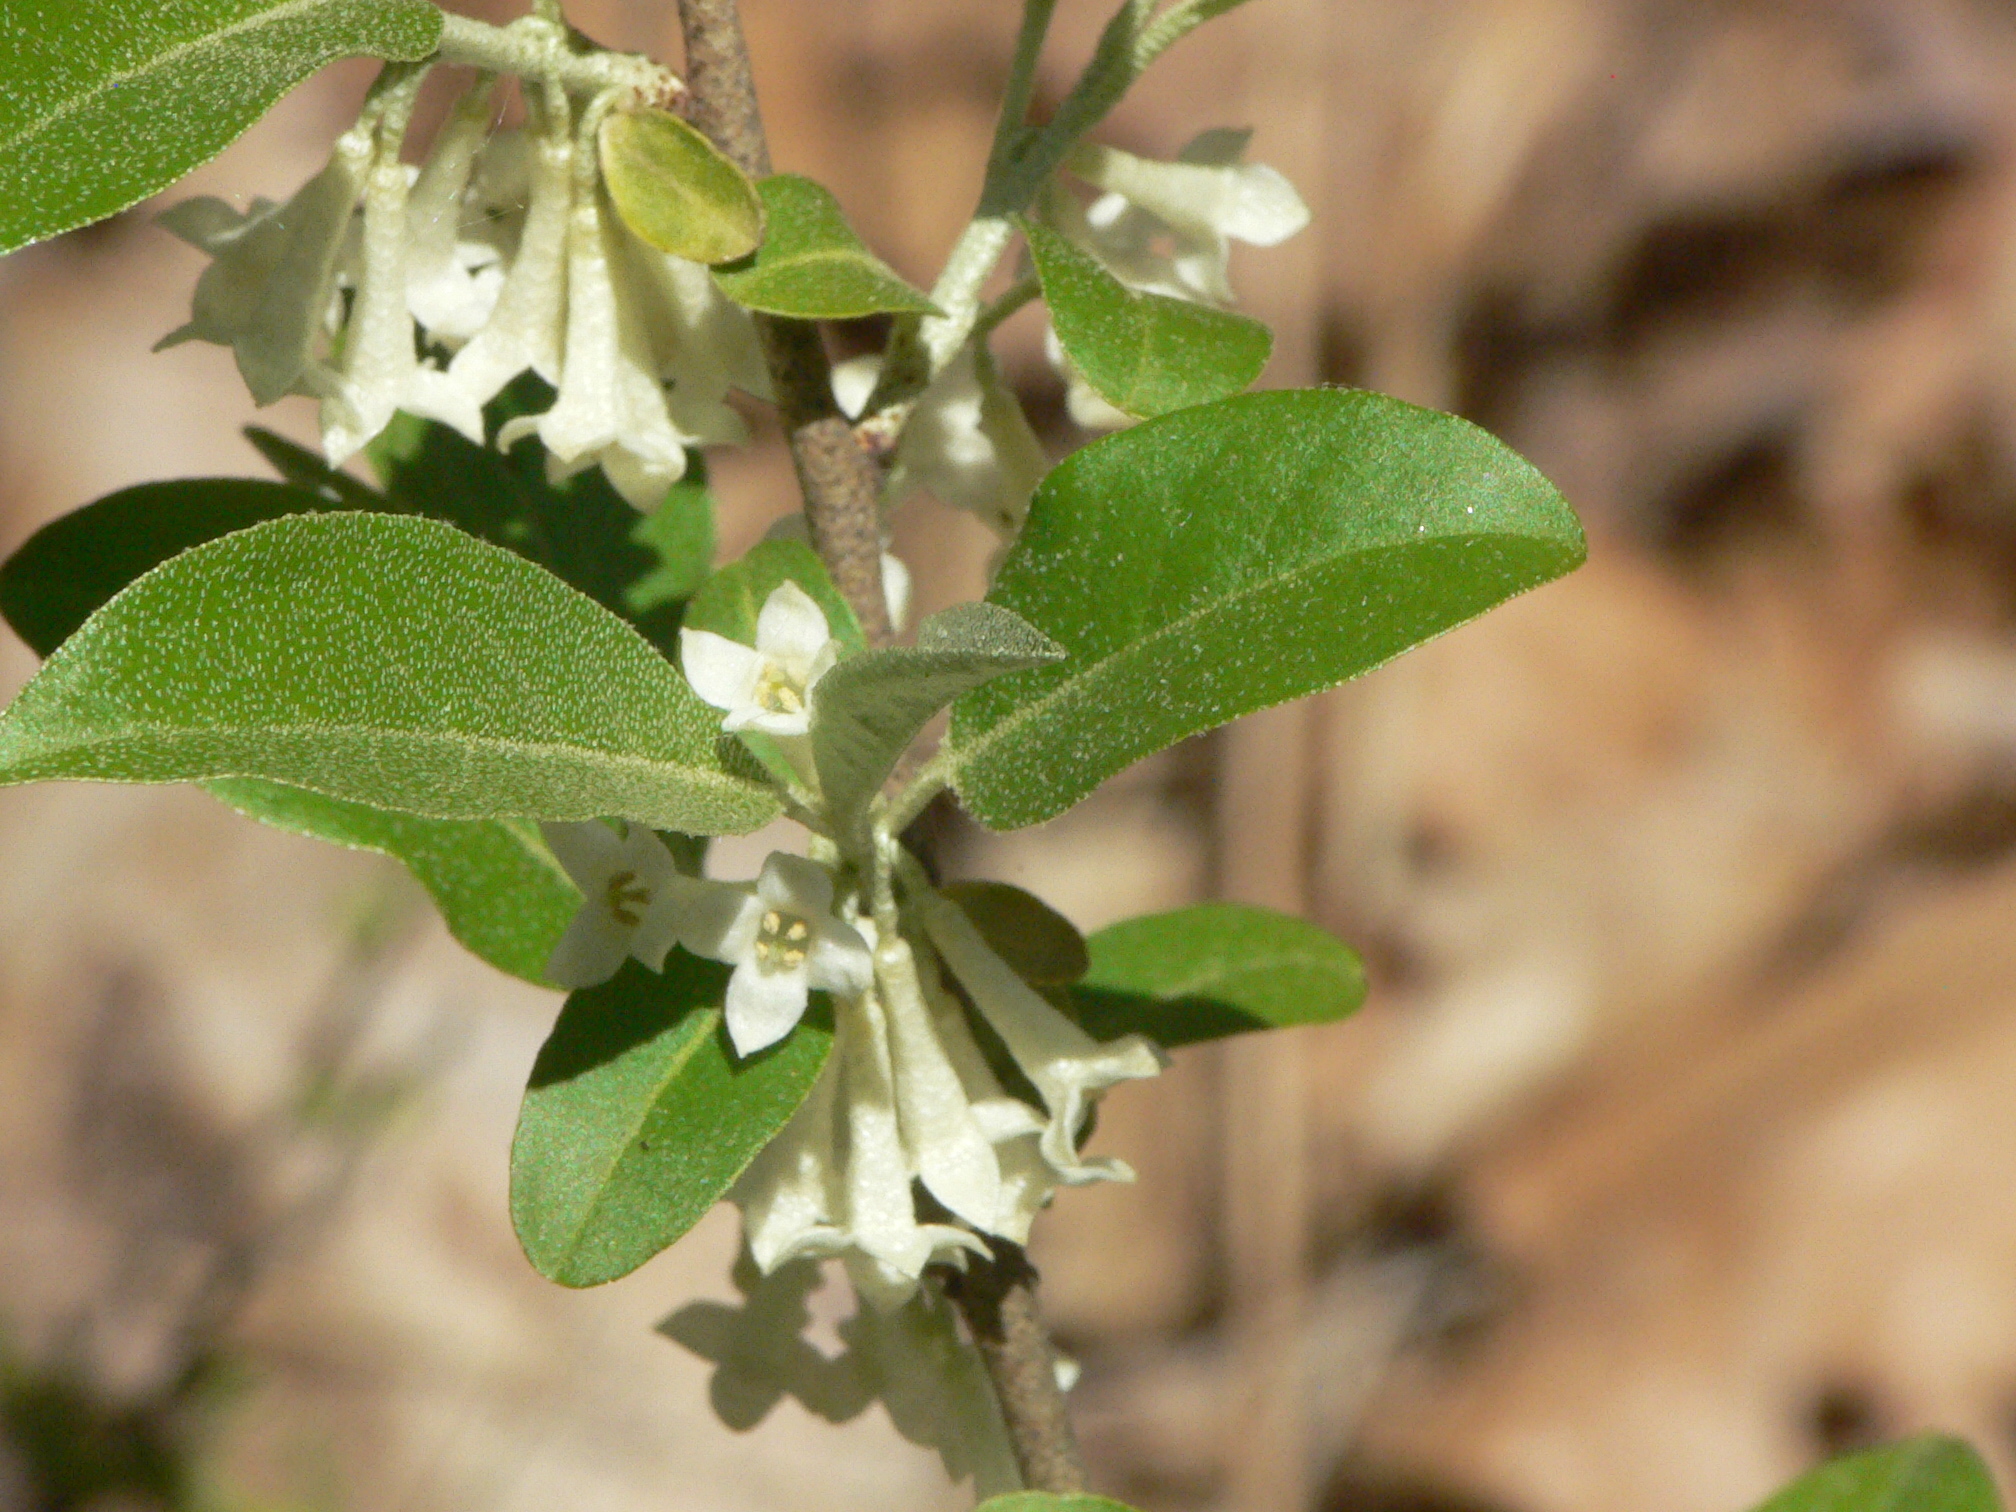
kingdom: Plantae
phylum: Tracheophyta
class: Magnoliopsida
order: Rosales
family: Elaeagnaceae
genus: Elaeagnus
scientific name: Elaeagnus umbellata
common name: Autumn olive
